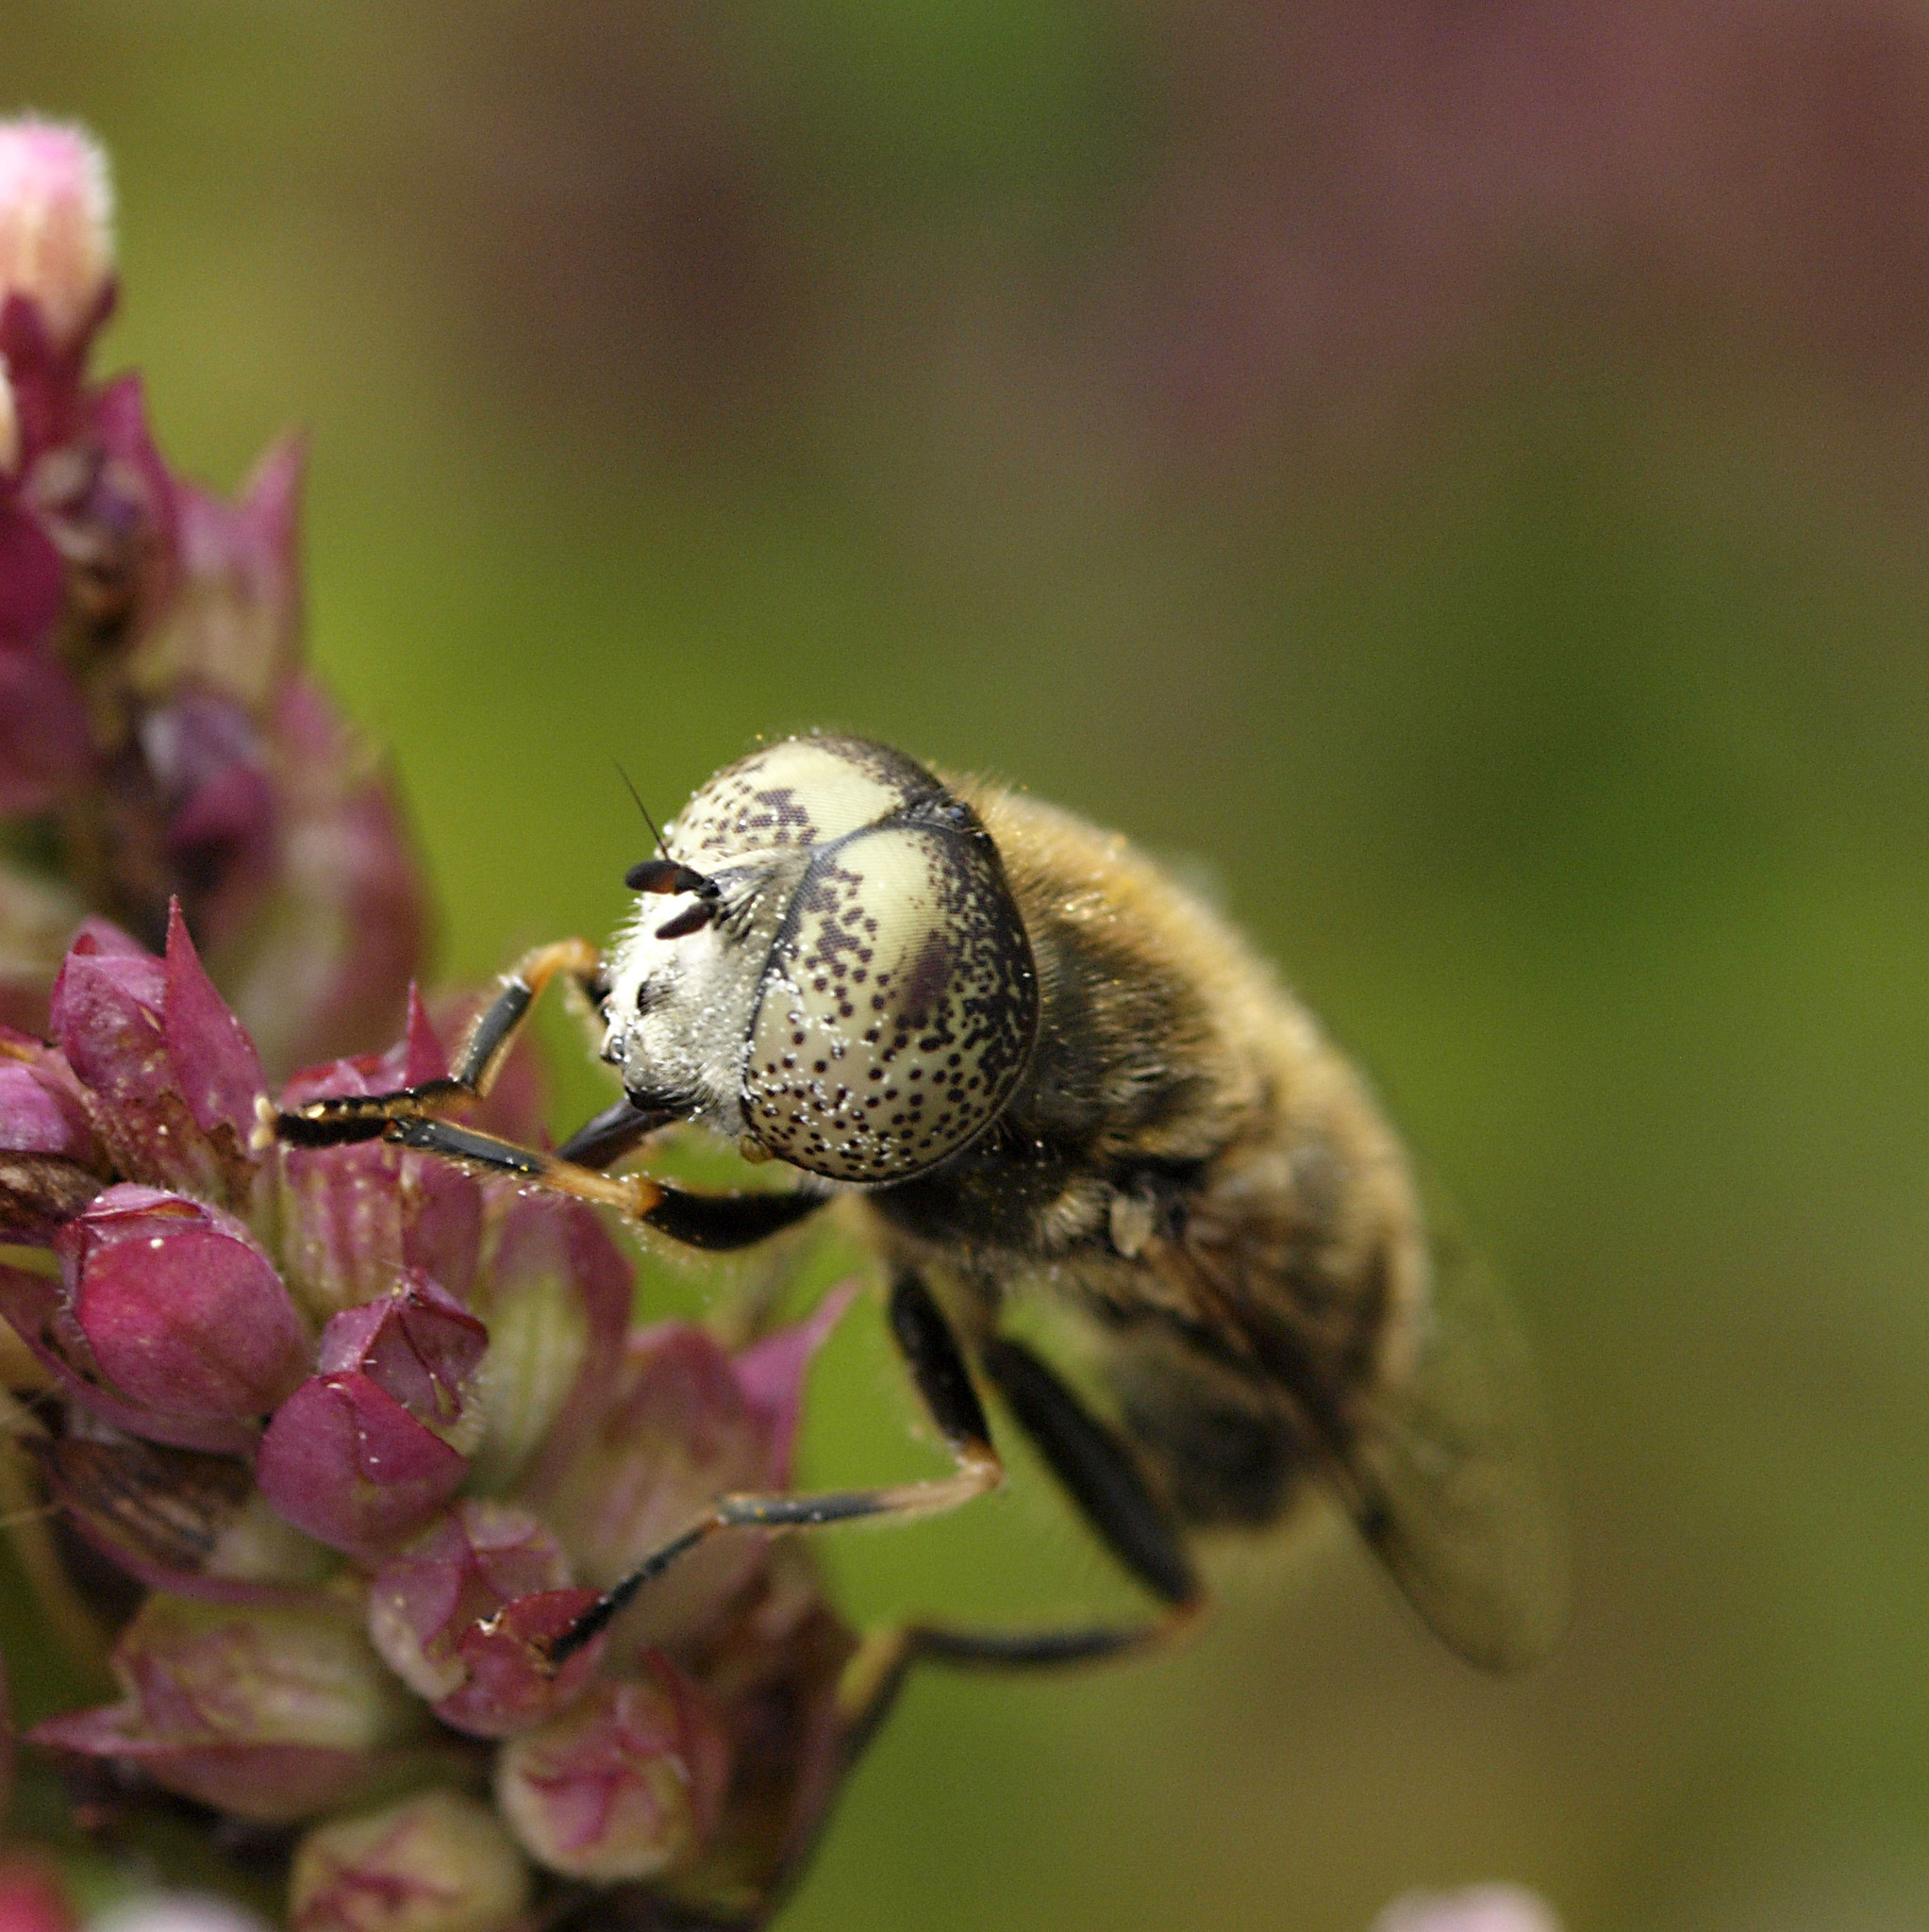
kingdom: Animalia
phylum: Arthropoda
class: Insecta
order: Diptera
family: Syrphidae
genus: Eristalinus
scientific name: Eristalinus aeneus
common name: Syrphid fly
